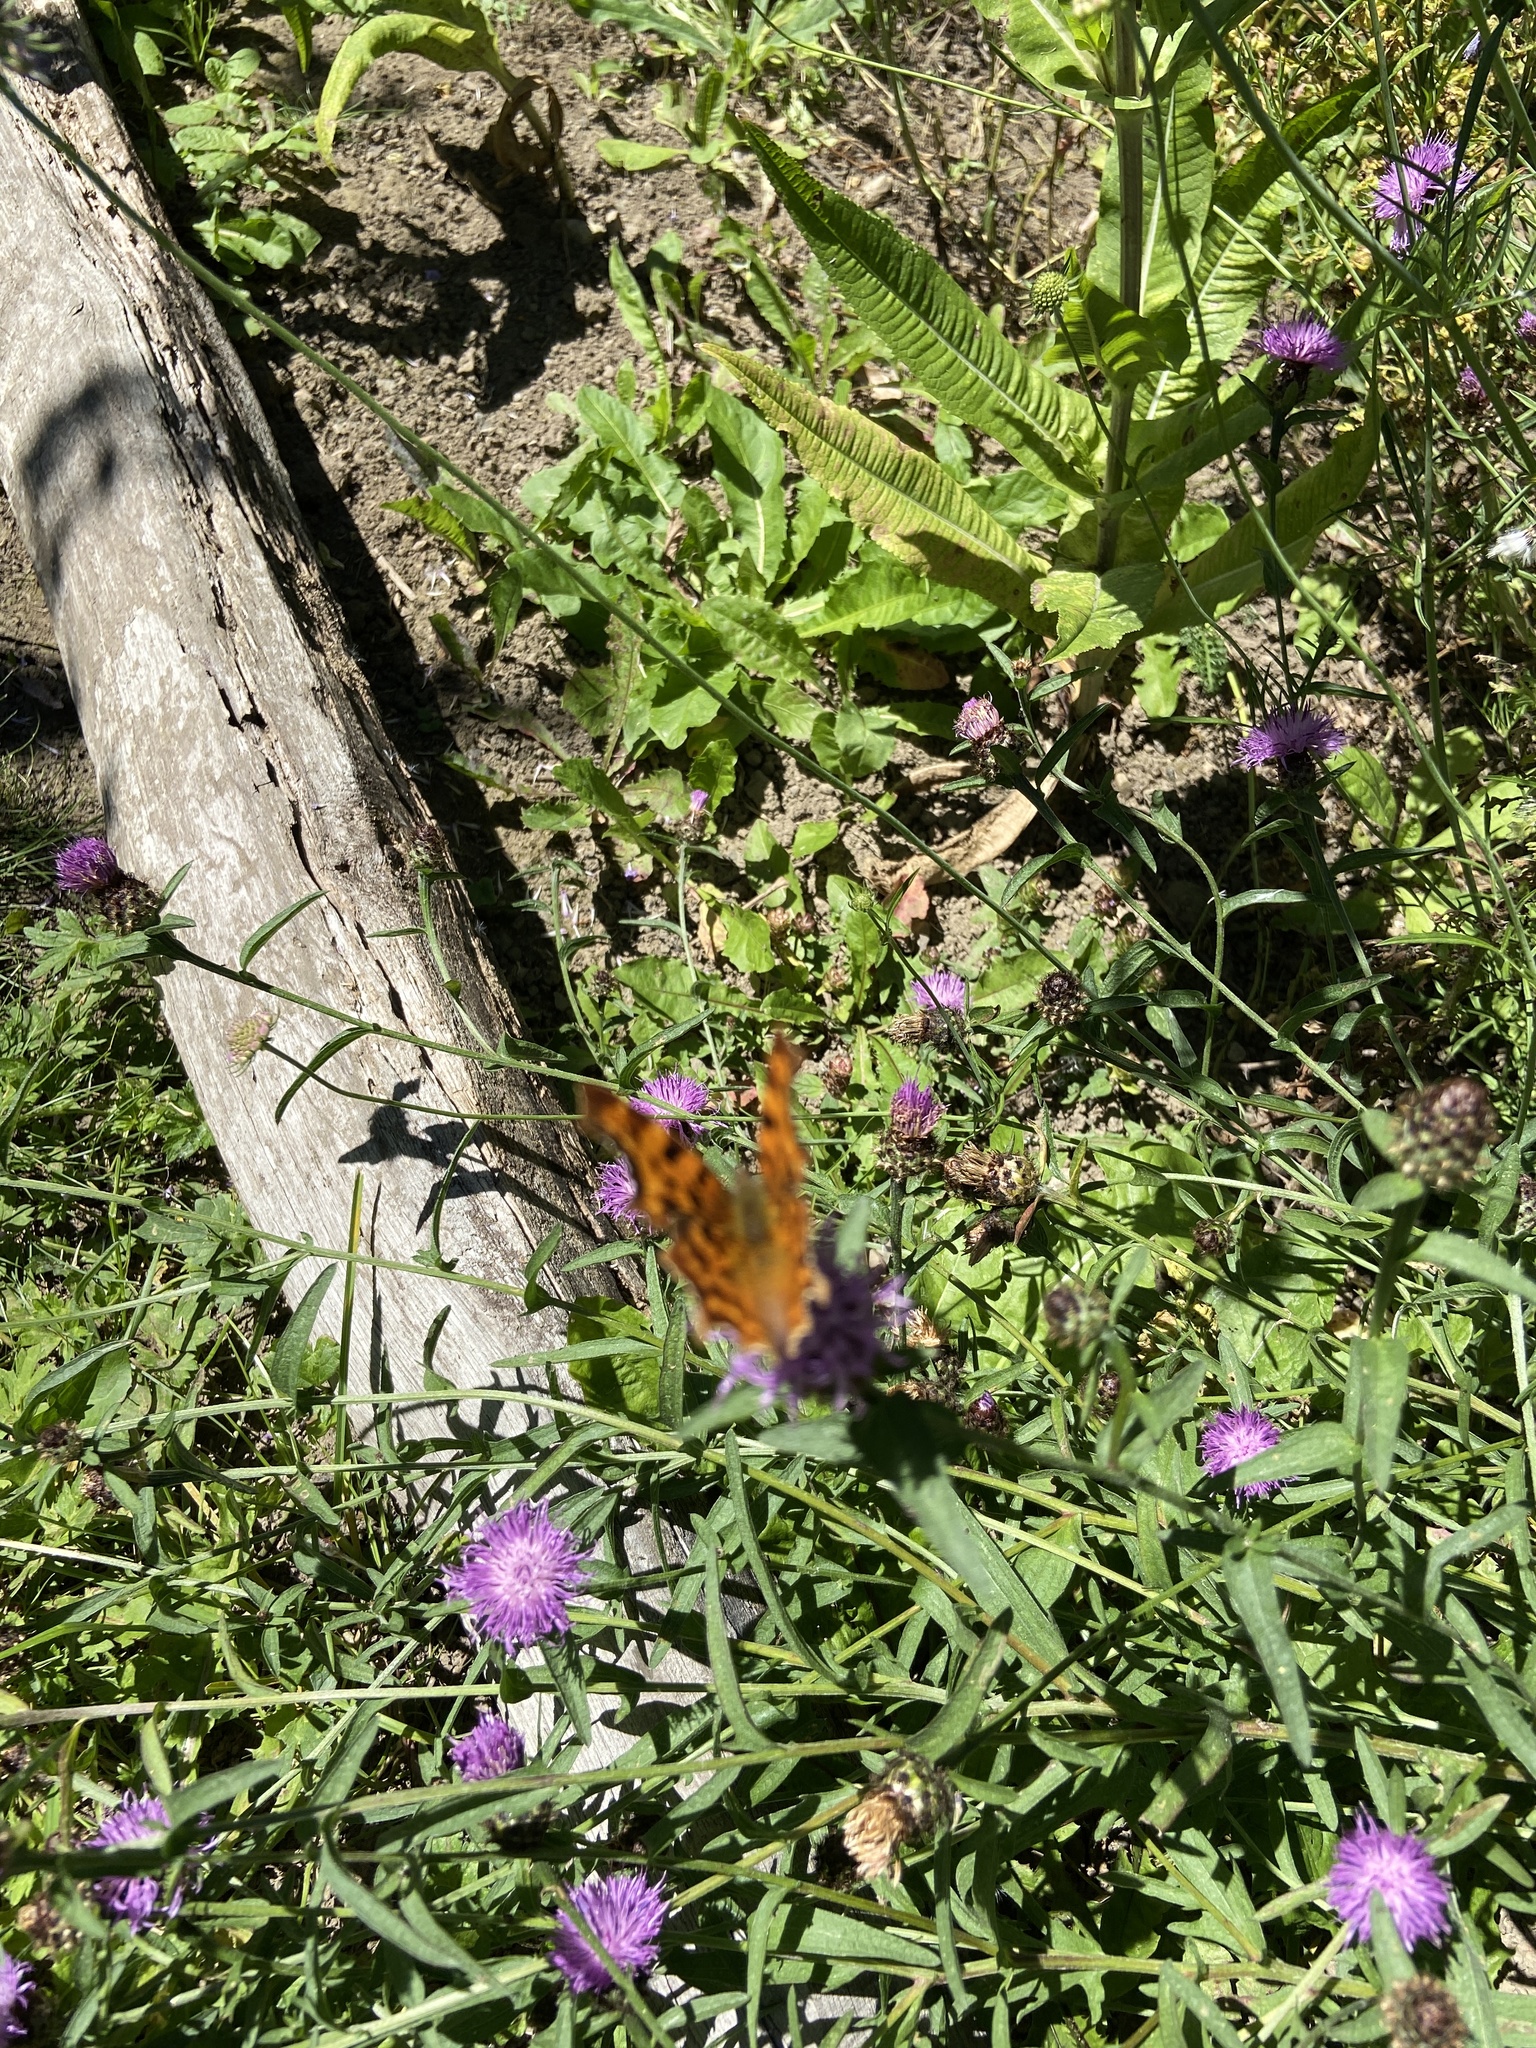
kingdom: Animalia
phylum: Arthropoda
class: Insecta
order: Lepidoptera
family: Nymphalidae
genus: Polygonia
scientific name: Polygonia c-album
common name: Comma
